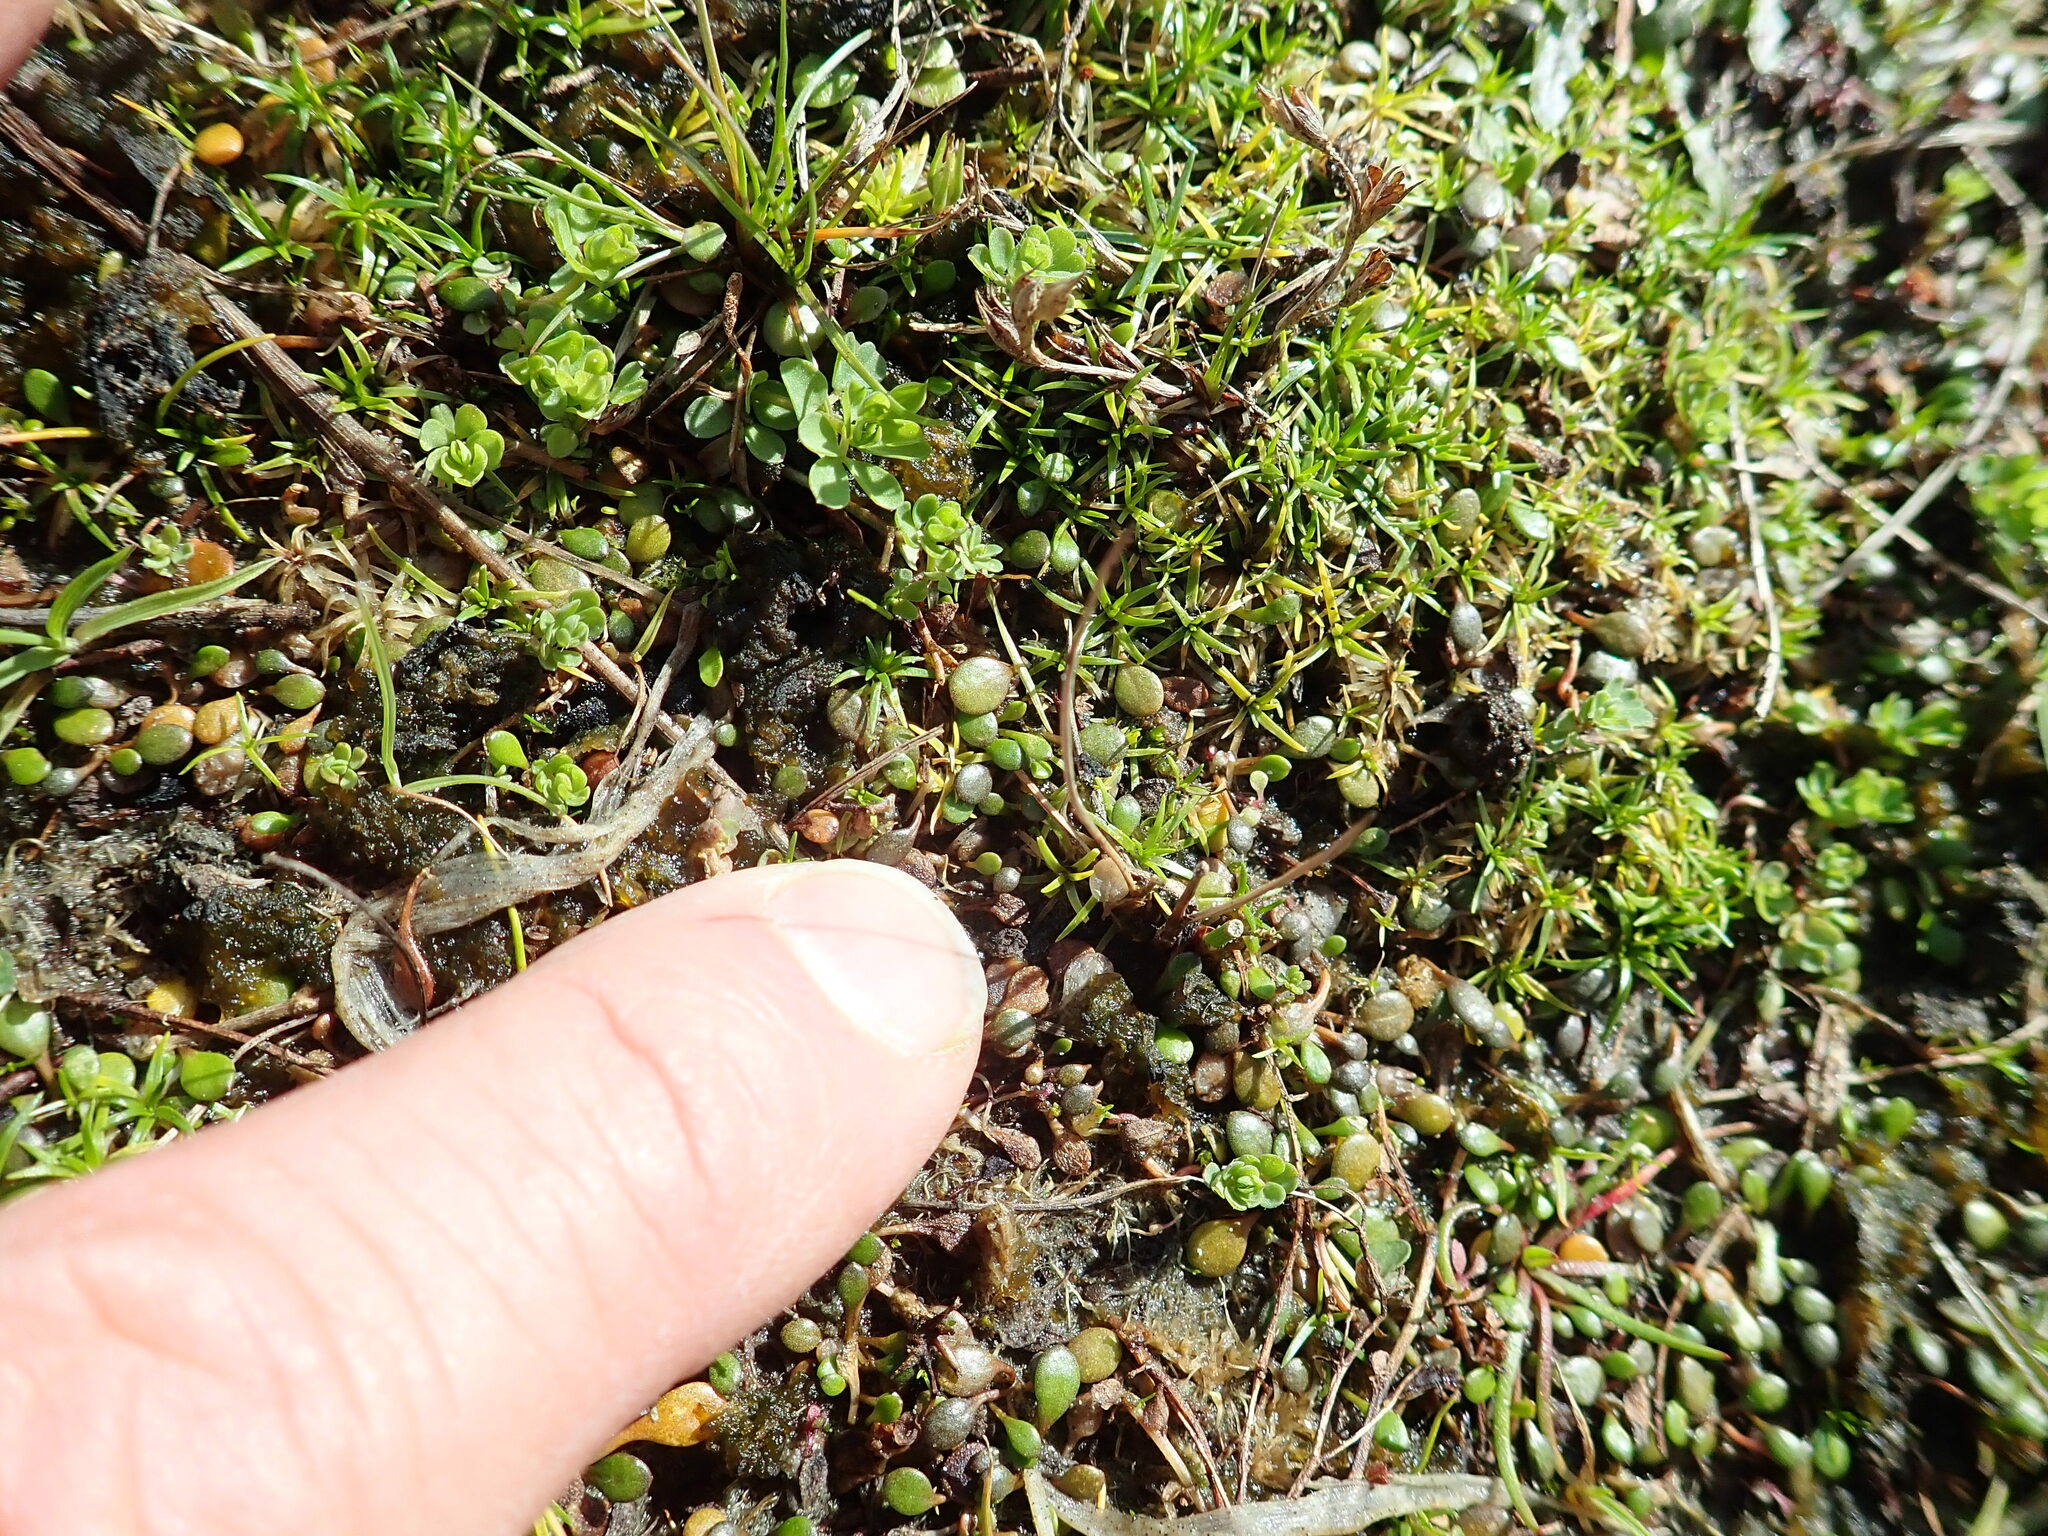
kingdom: Plantae
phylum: Tracheophyta
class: Magnoliopsida
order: Caryophyllales
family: Caryophyllaceae
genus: Sagina
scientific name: Sagina procumbens
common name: Procumbent pearlwort
